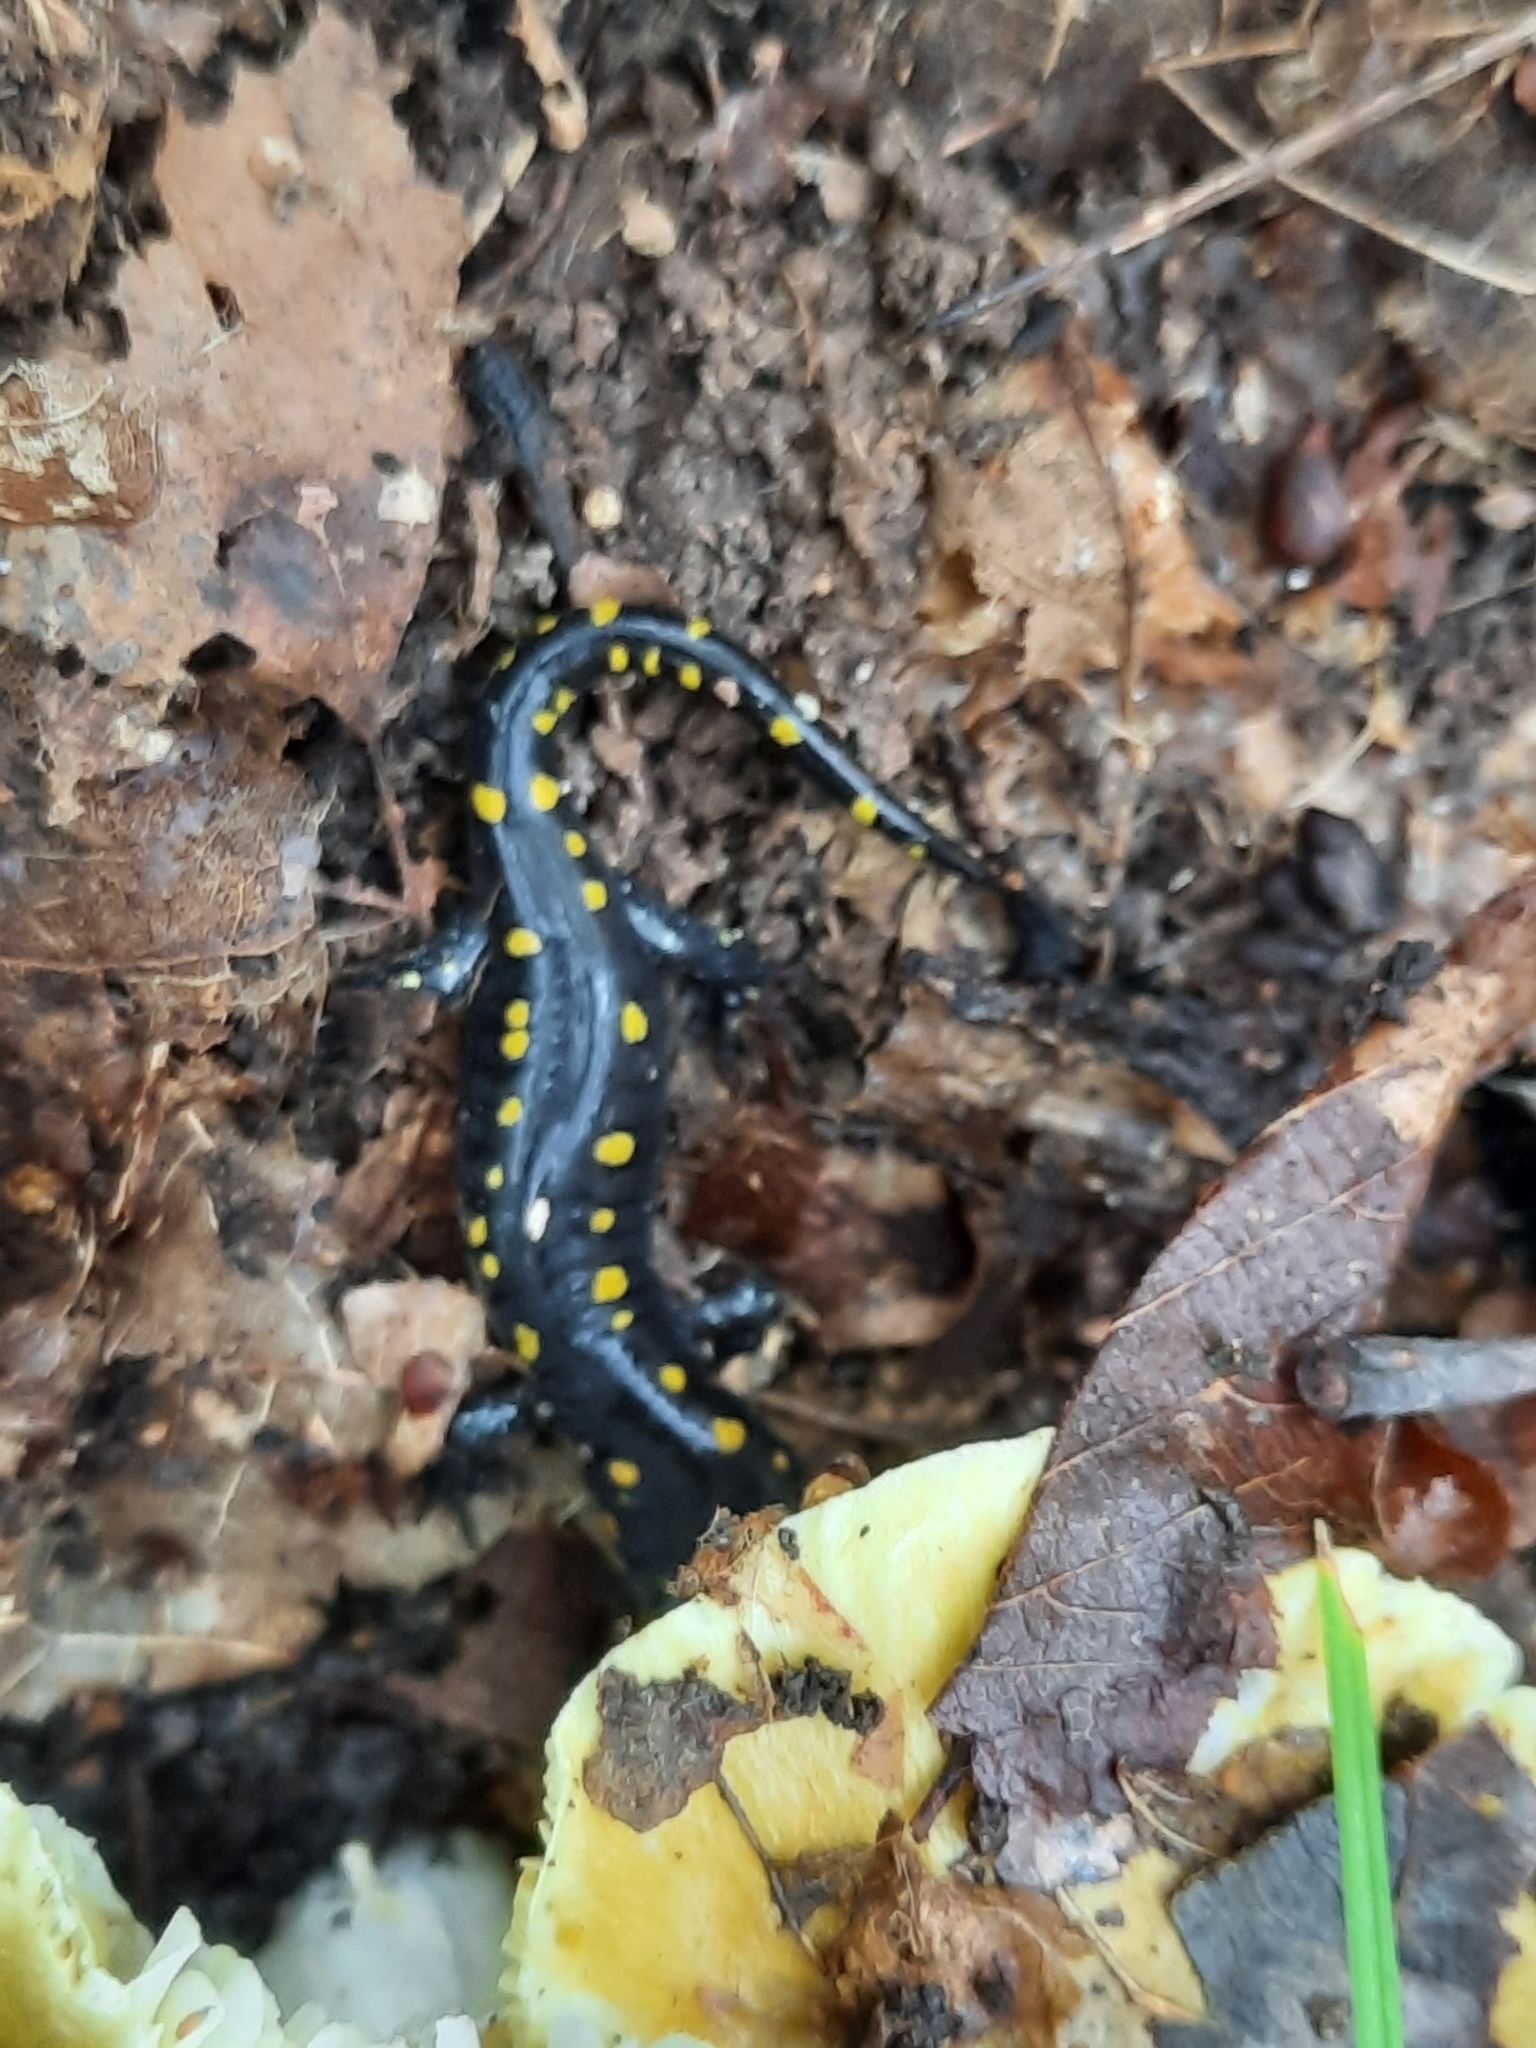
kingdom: Animalia
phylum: Chordata
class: Amphibia
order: Caudata
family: Ambystomatidae
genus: Ambystoma
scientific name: Ambystoma maculatum
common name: Spotted salamander
